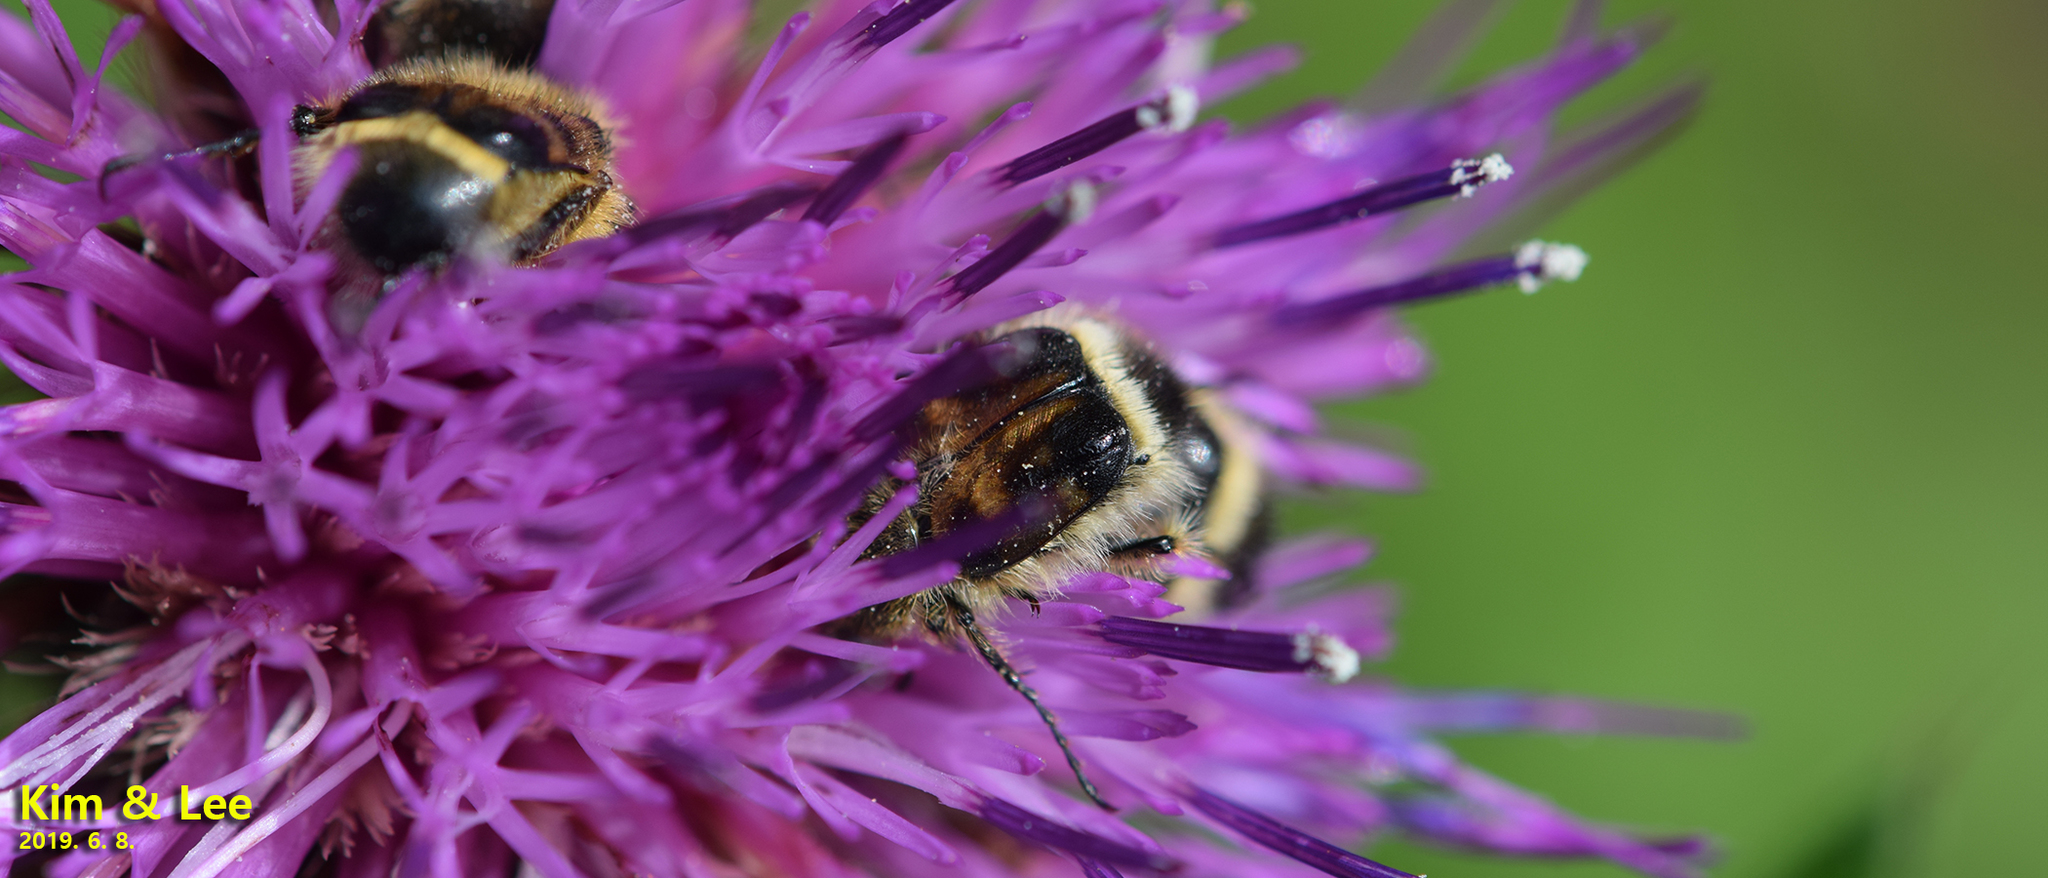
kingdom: Animalia
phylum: Arthropoda
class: Insecta
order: Coleoptera
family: Scarabaeidae
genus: Lasiotrichius
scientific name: Lasiotrichius succinctus
